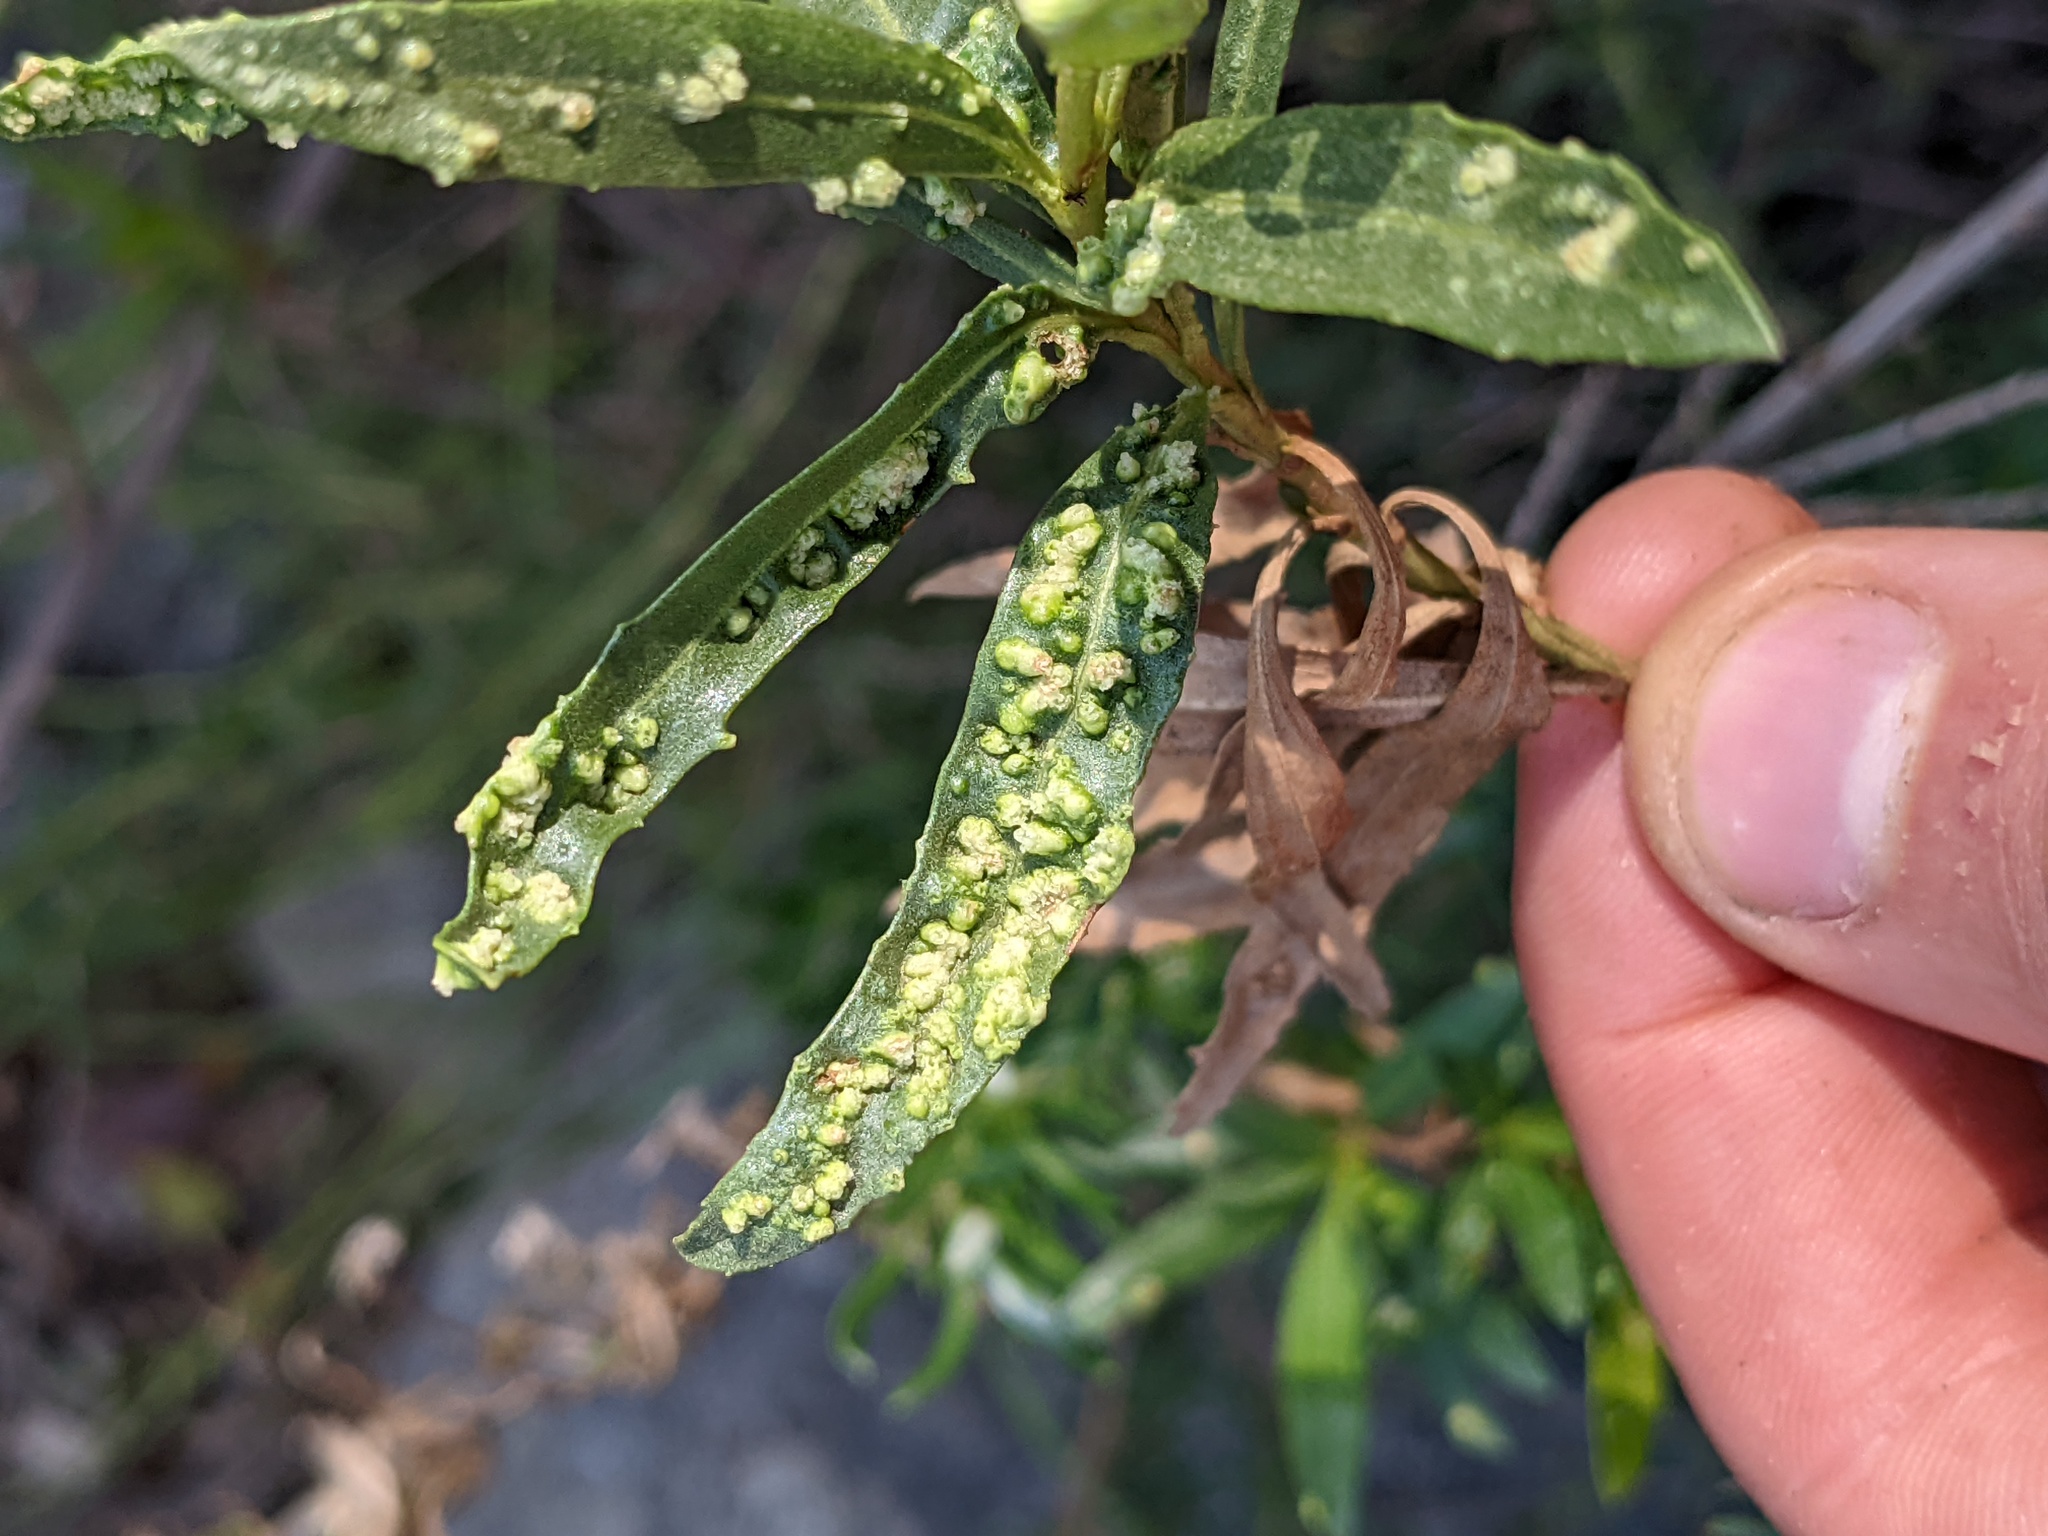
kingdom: Animalia
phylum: Arthropoda
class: Arachnida
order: Trombidiformes
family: Eriophyidae
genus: Aceria
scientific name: Aceria
